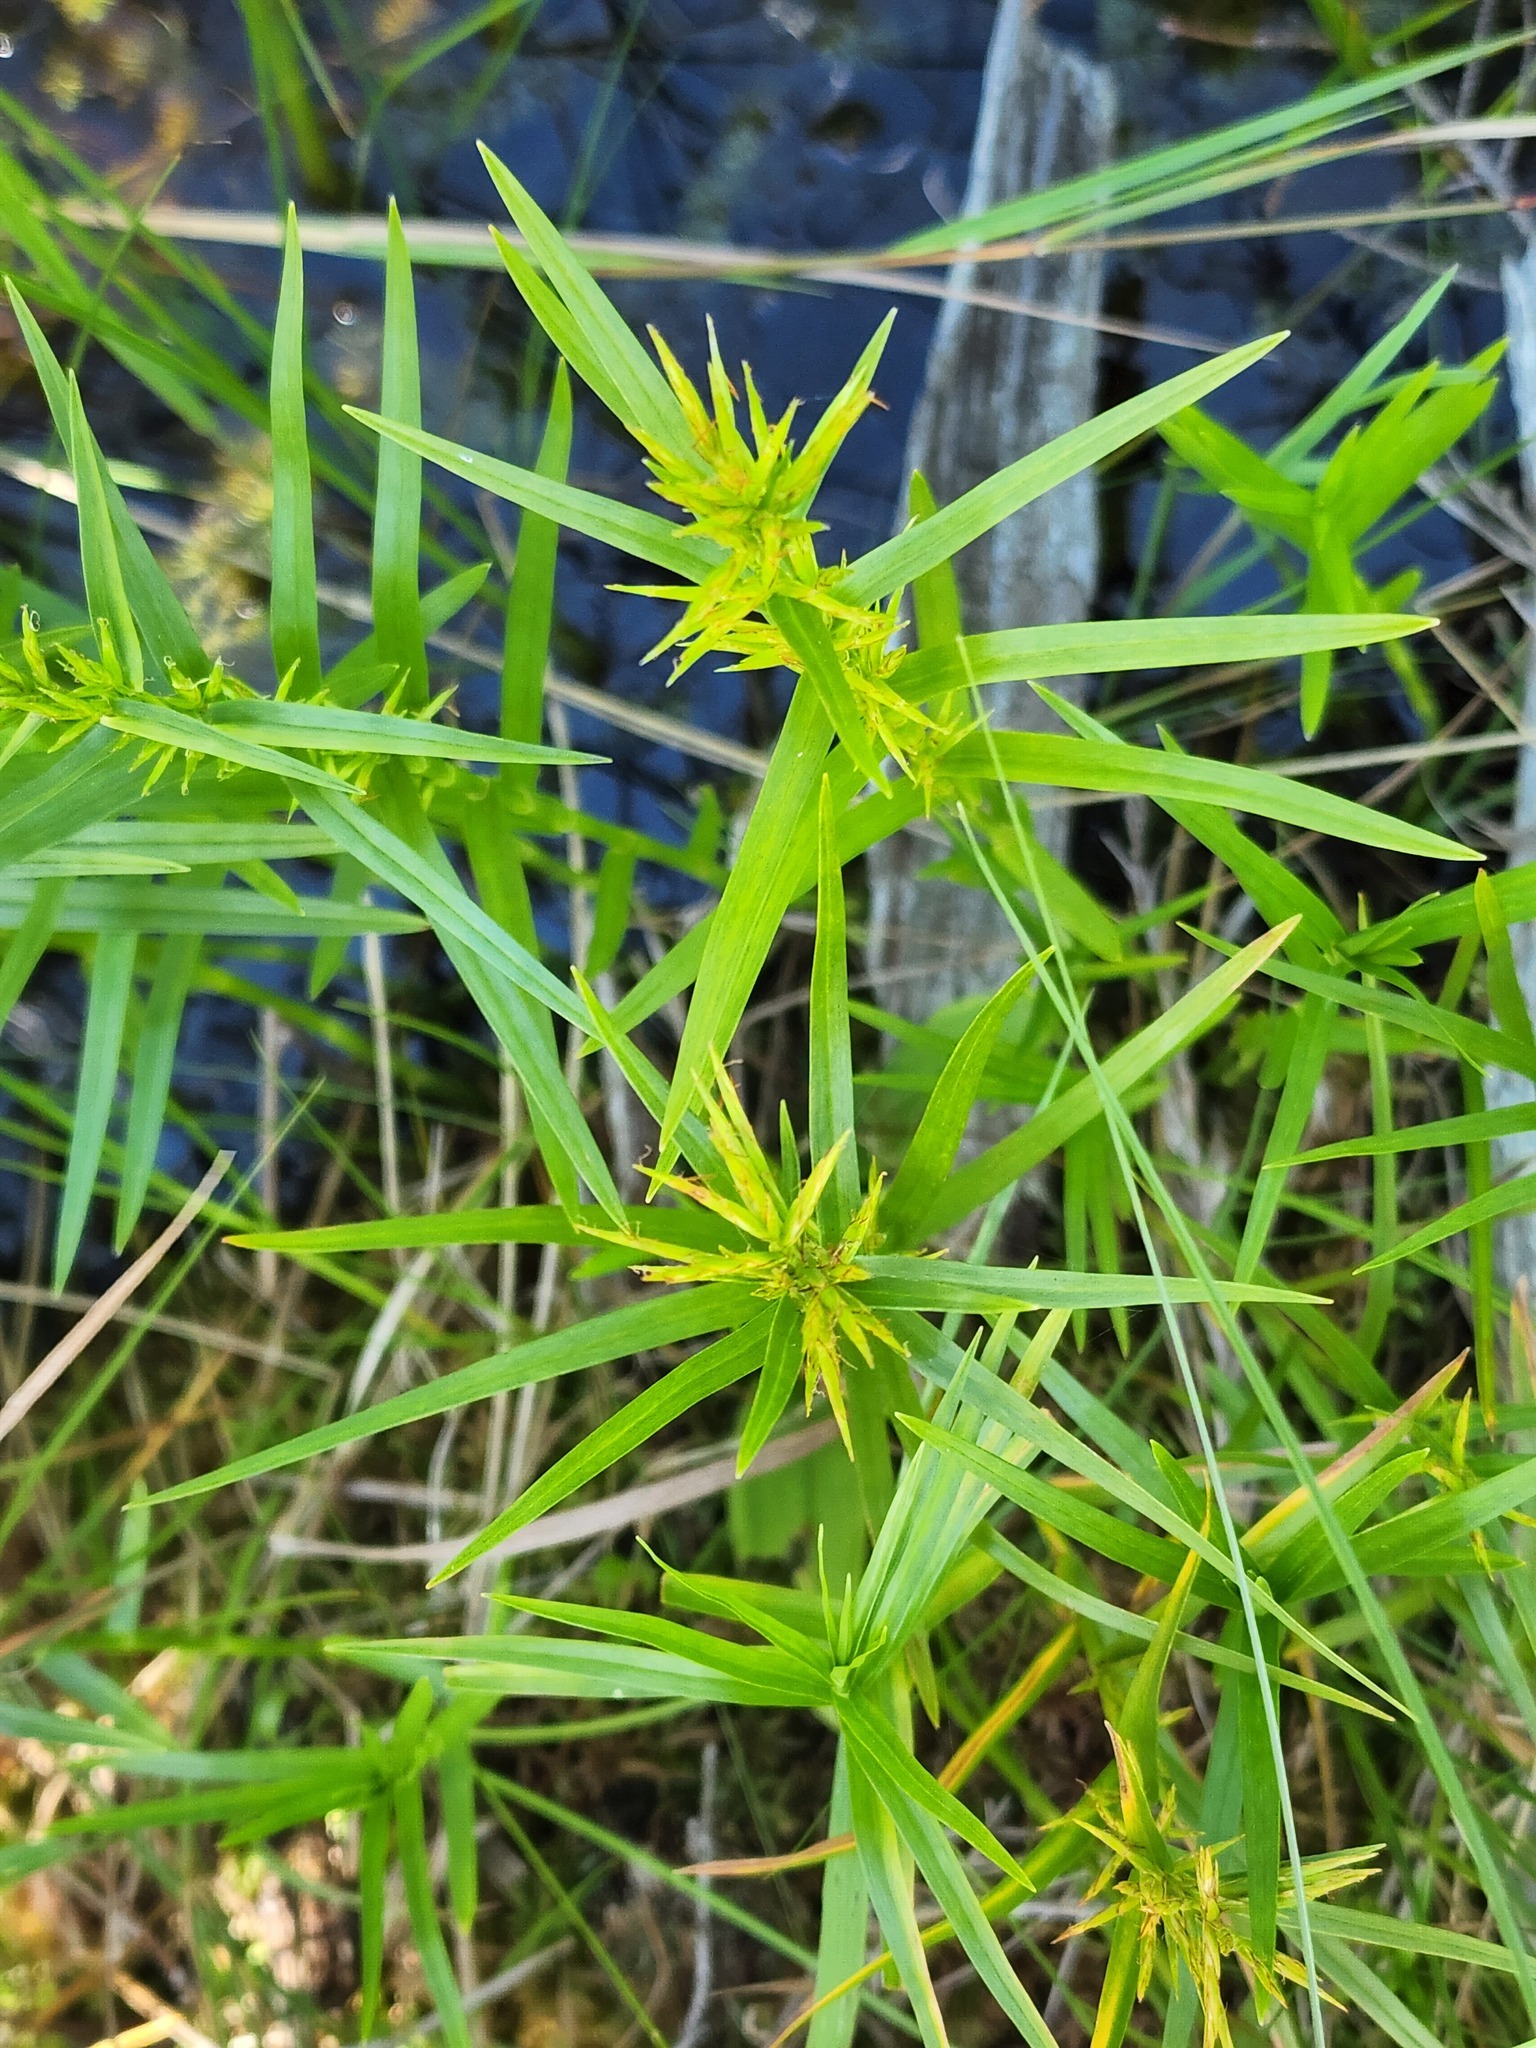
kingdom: Plantae
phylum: Tracheophyta
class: Liliopsida
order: Poales
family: Cyperaceae
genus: Dulichium
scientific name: Dulichium arundinaceum
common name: Three-way sedge
